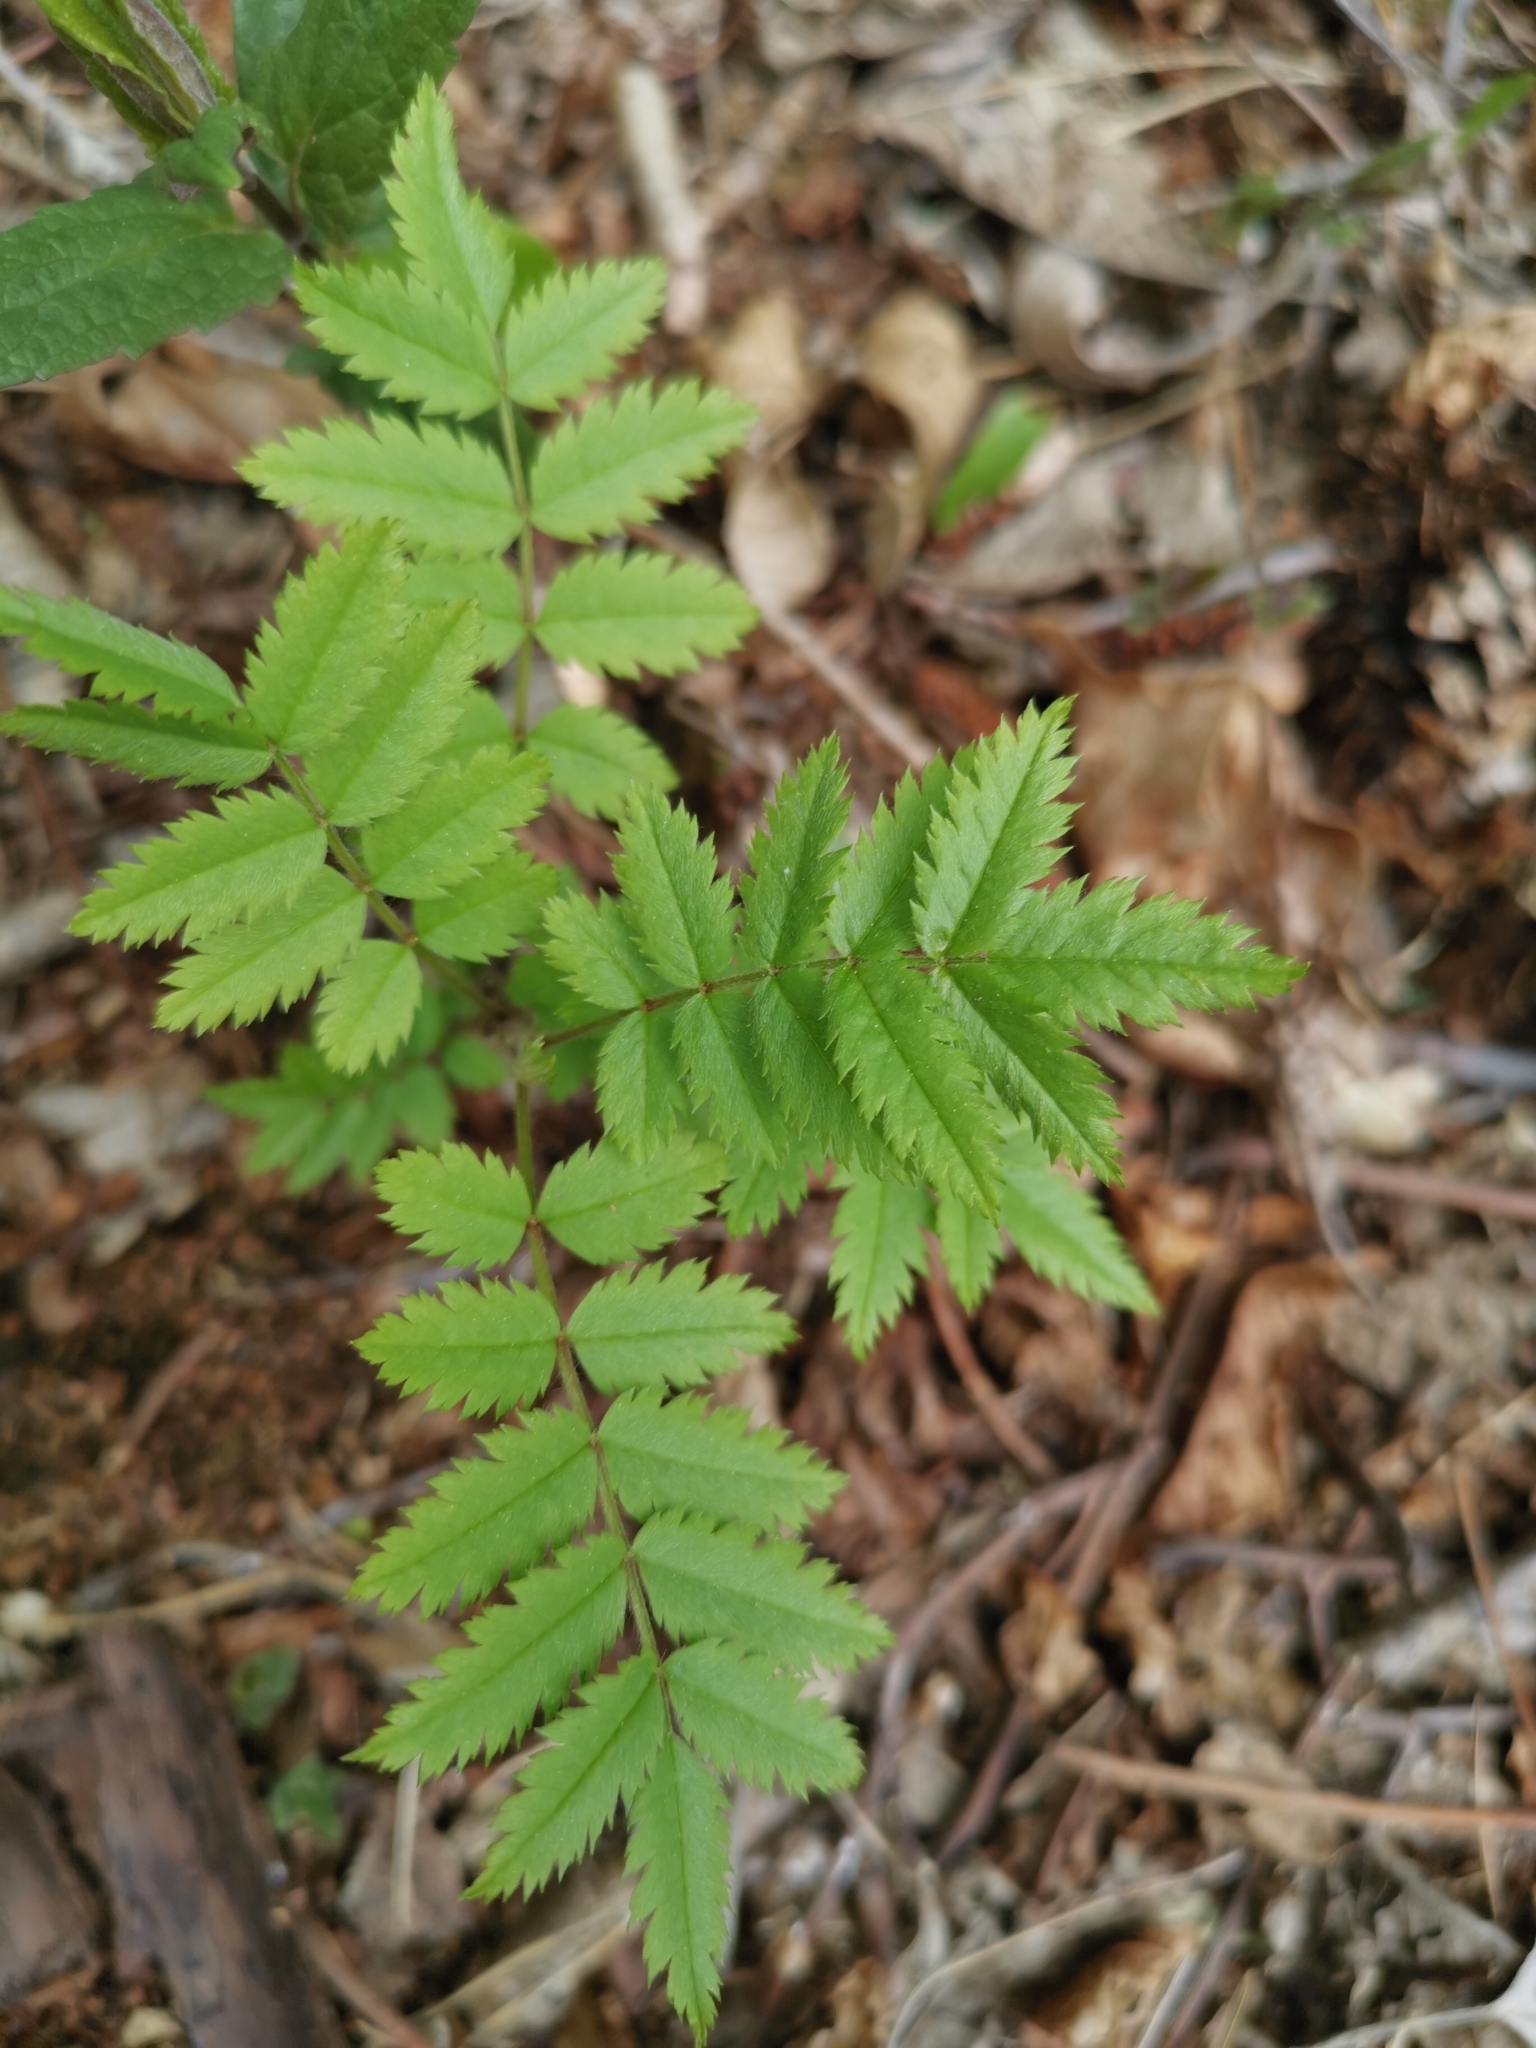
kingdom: Plantae
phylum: Tracheophyta
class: Magnoliopsida
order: Rosales
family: Rosaceae
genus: Sorbus
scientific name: Sorbus aucuparia
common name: Rowan
